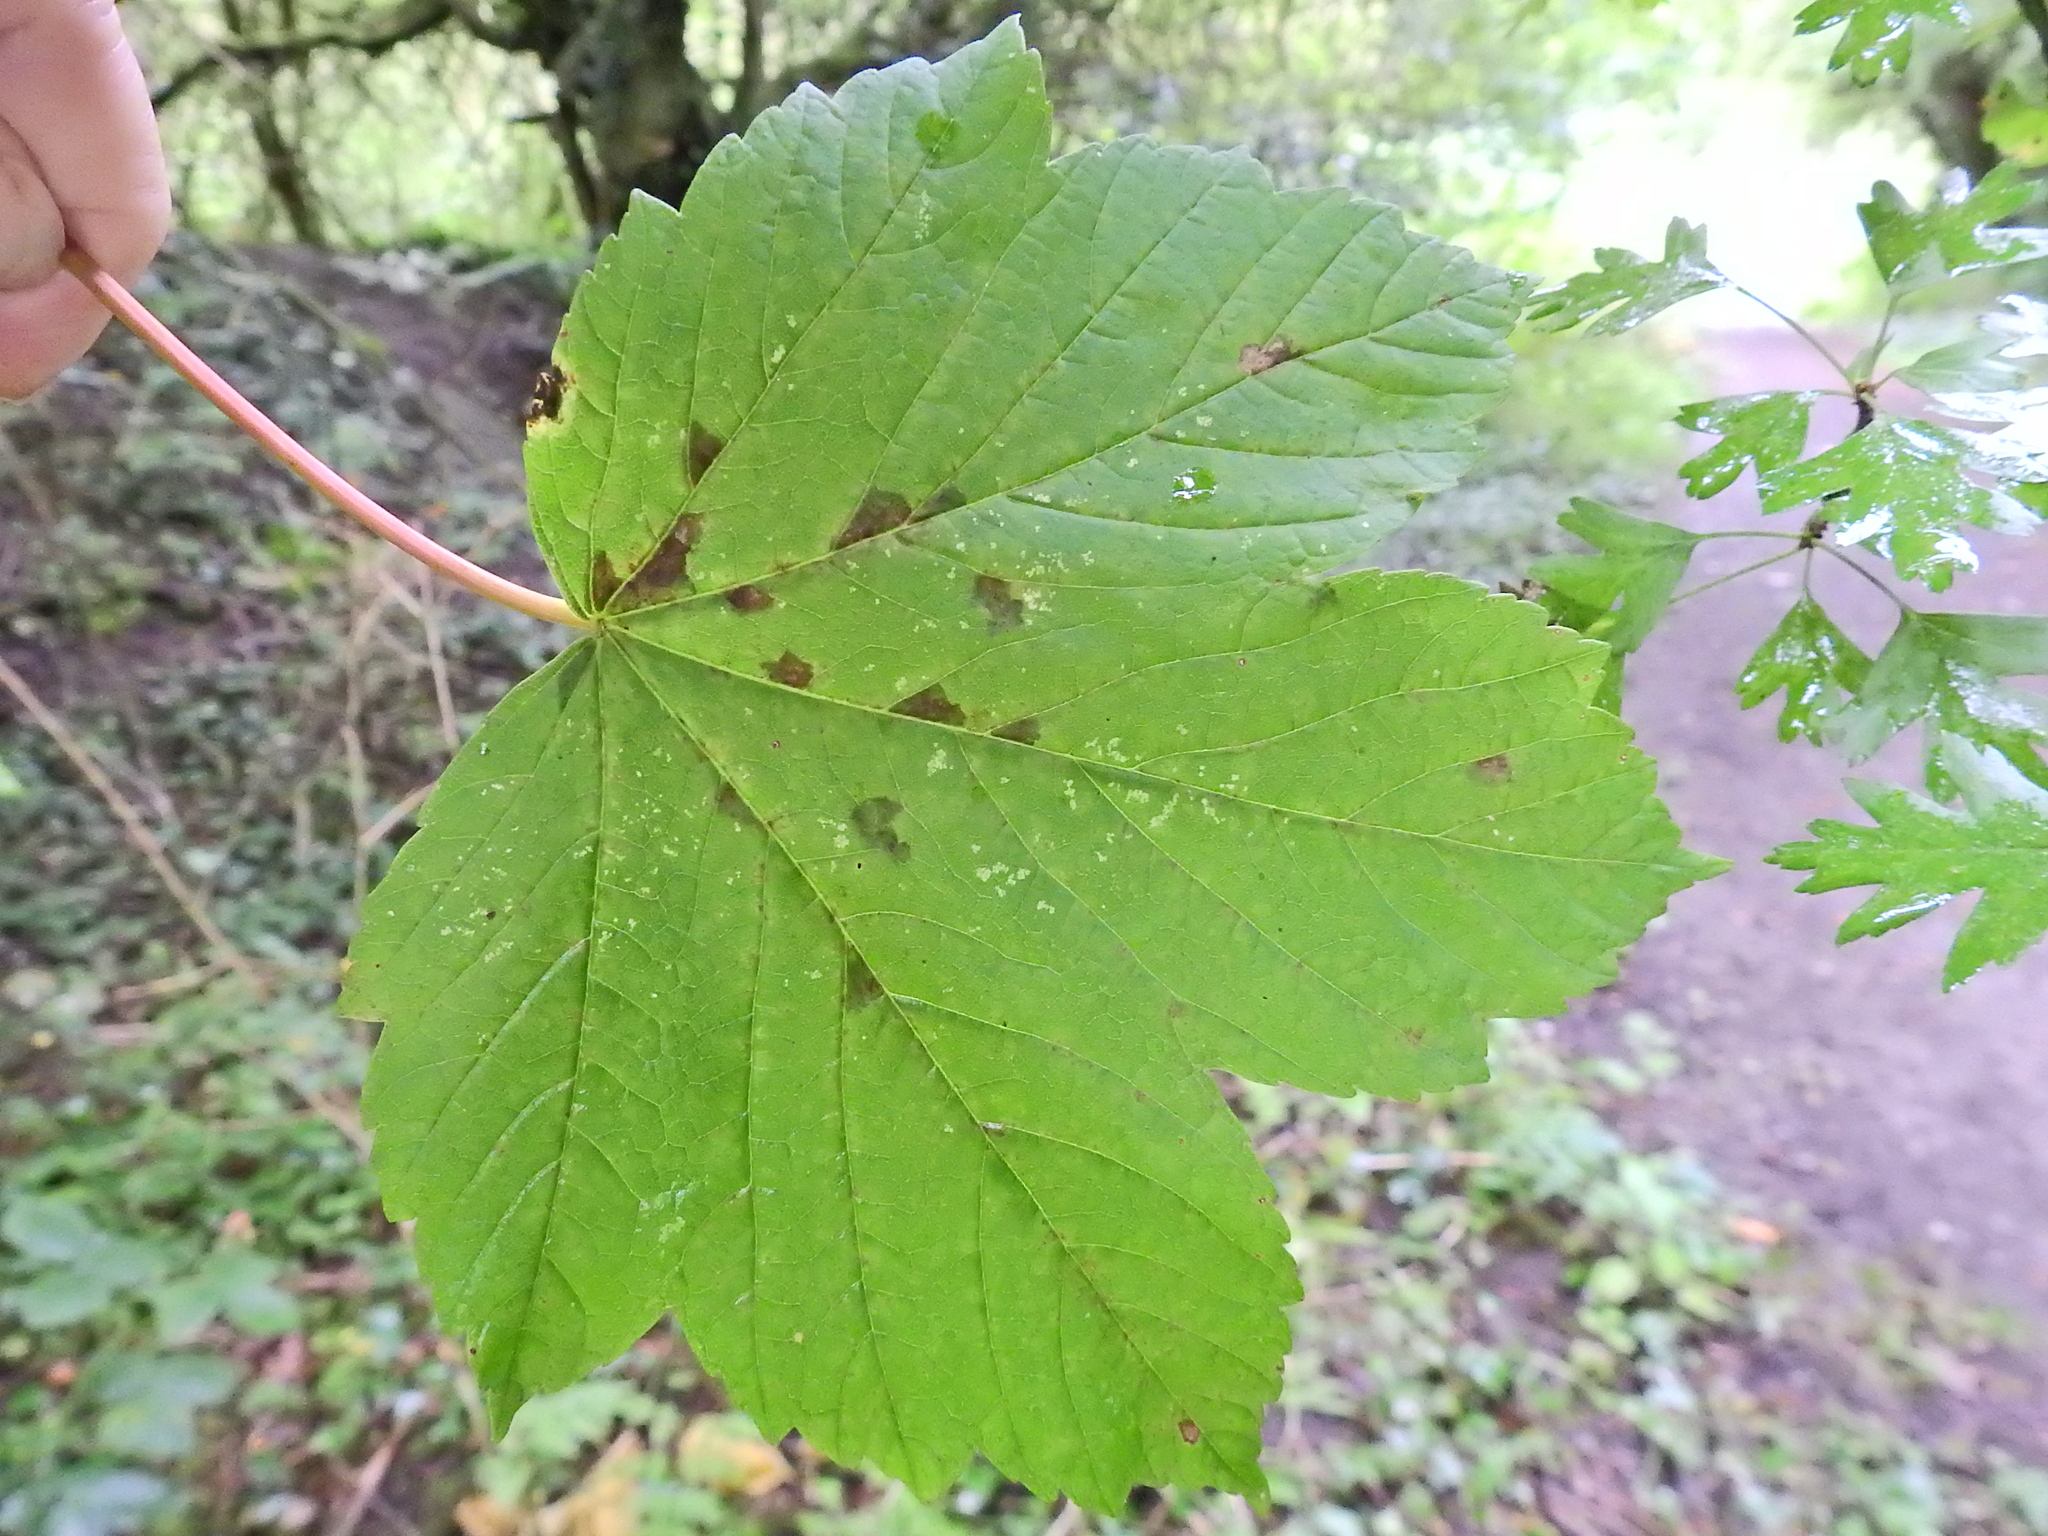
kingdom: Plantae
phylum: Tracheophyta
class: Magnoliopsida
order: Sapindales
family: Sapindaceae
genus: Acer
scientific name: Acer pseudoplatanus
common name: Sycamore
